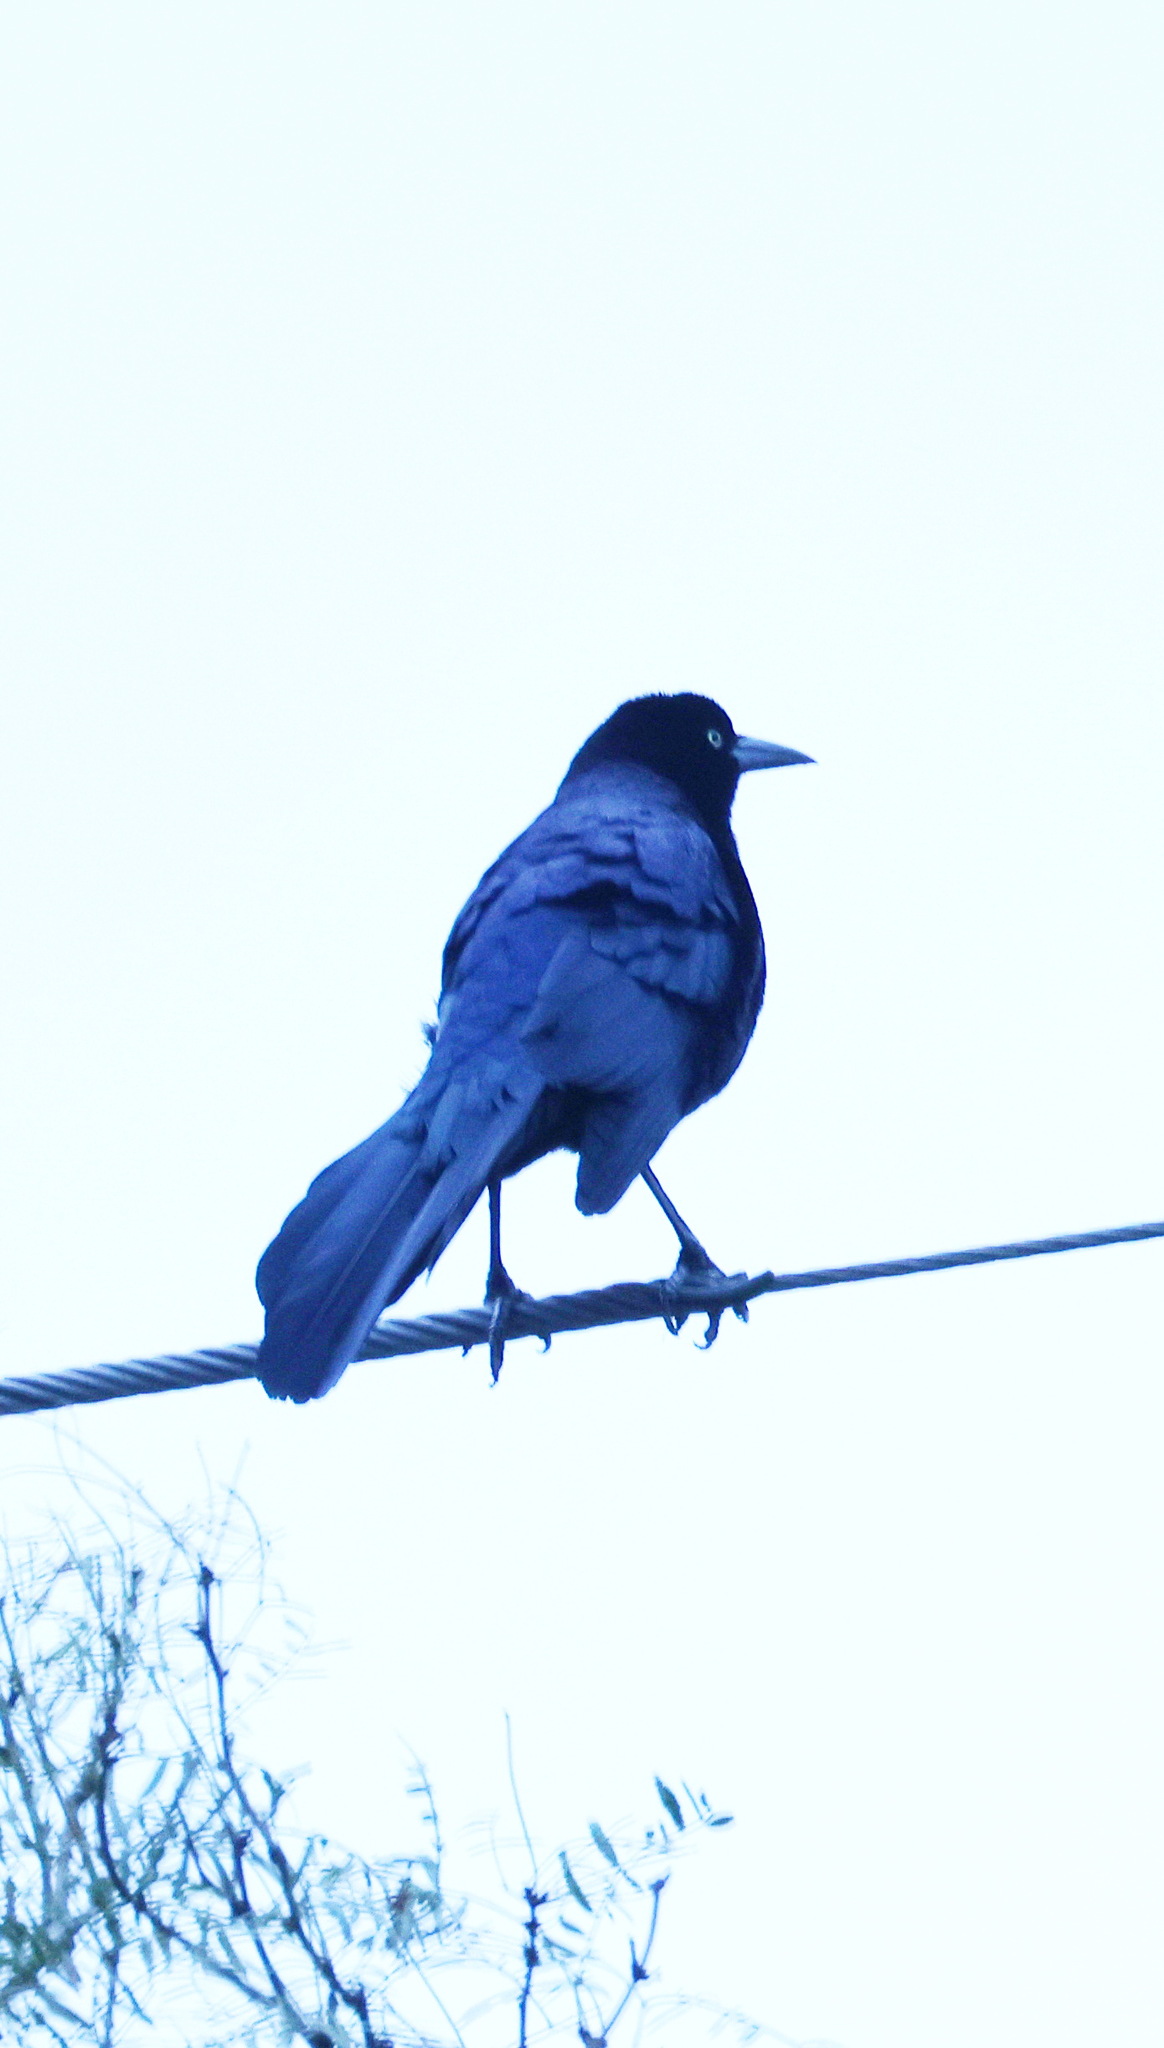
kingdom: Animalia
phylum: Chordata
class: Aves
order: Passeriformes
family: Icteridae
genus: Quiscalus
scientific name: Quiscalus mexicanus
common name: Great-tailed grackle
